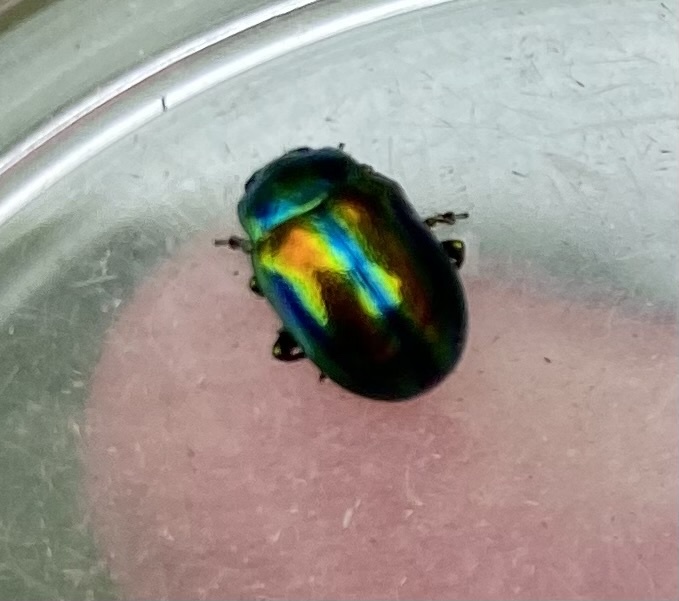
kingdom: Animalia
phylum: Arthropoda
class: Insecta
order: Coleoptera
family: Chrysomelidae
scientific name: Chrysomelidae
